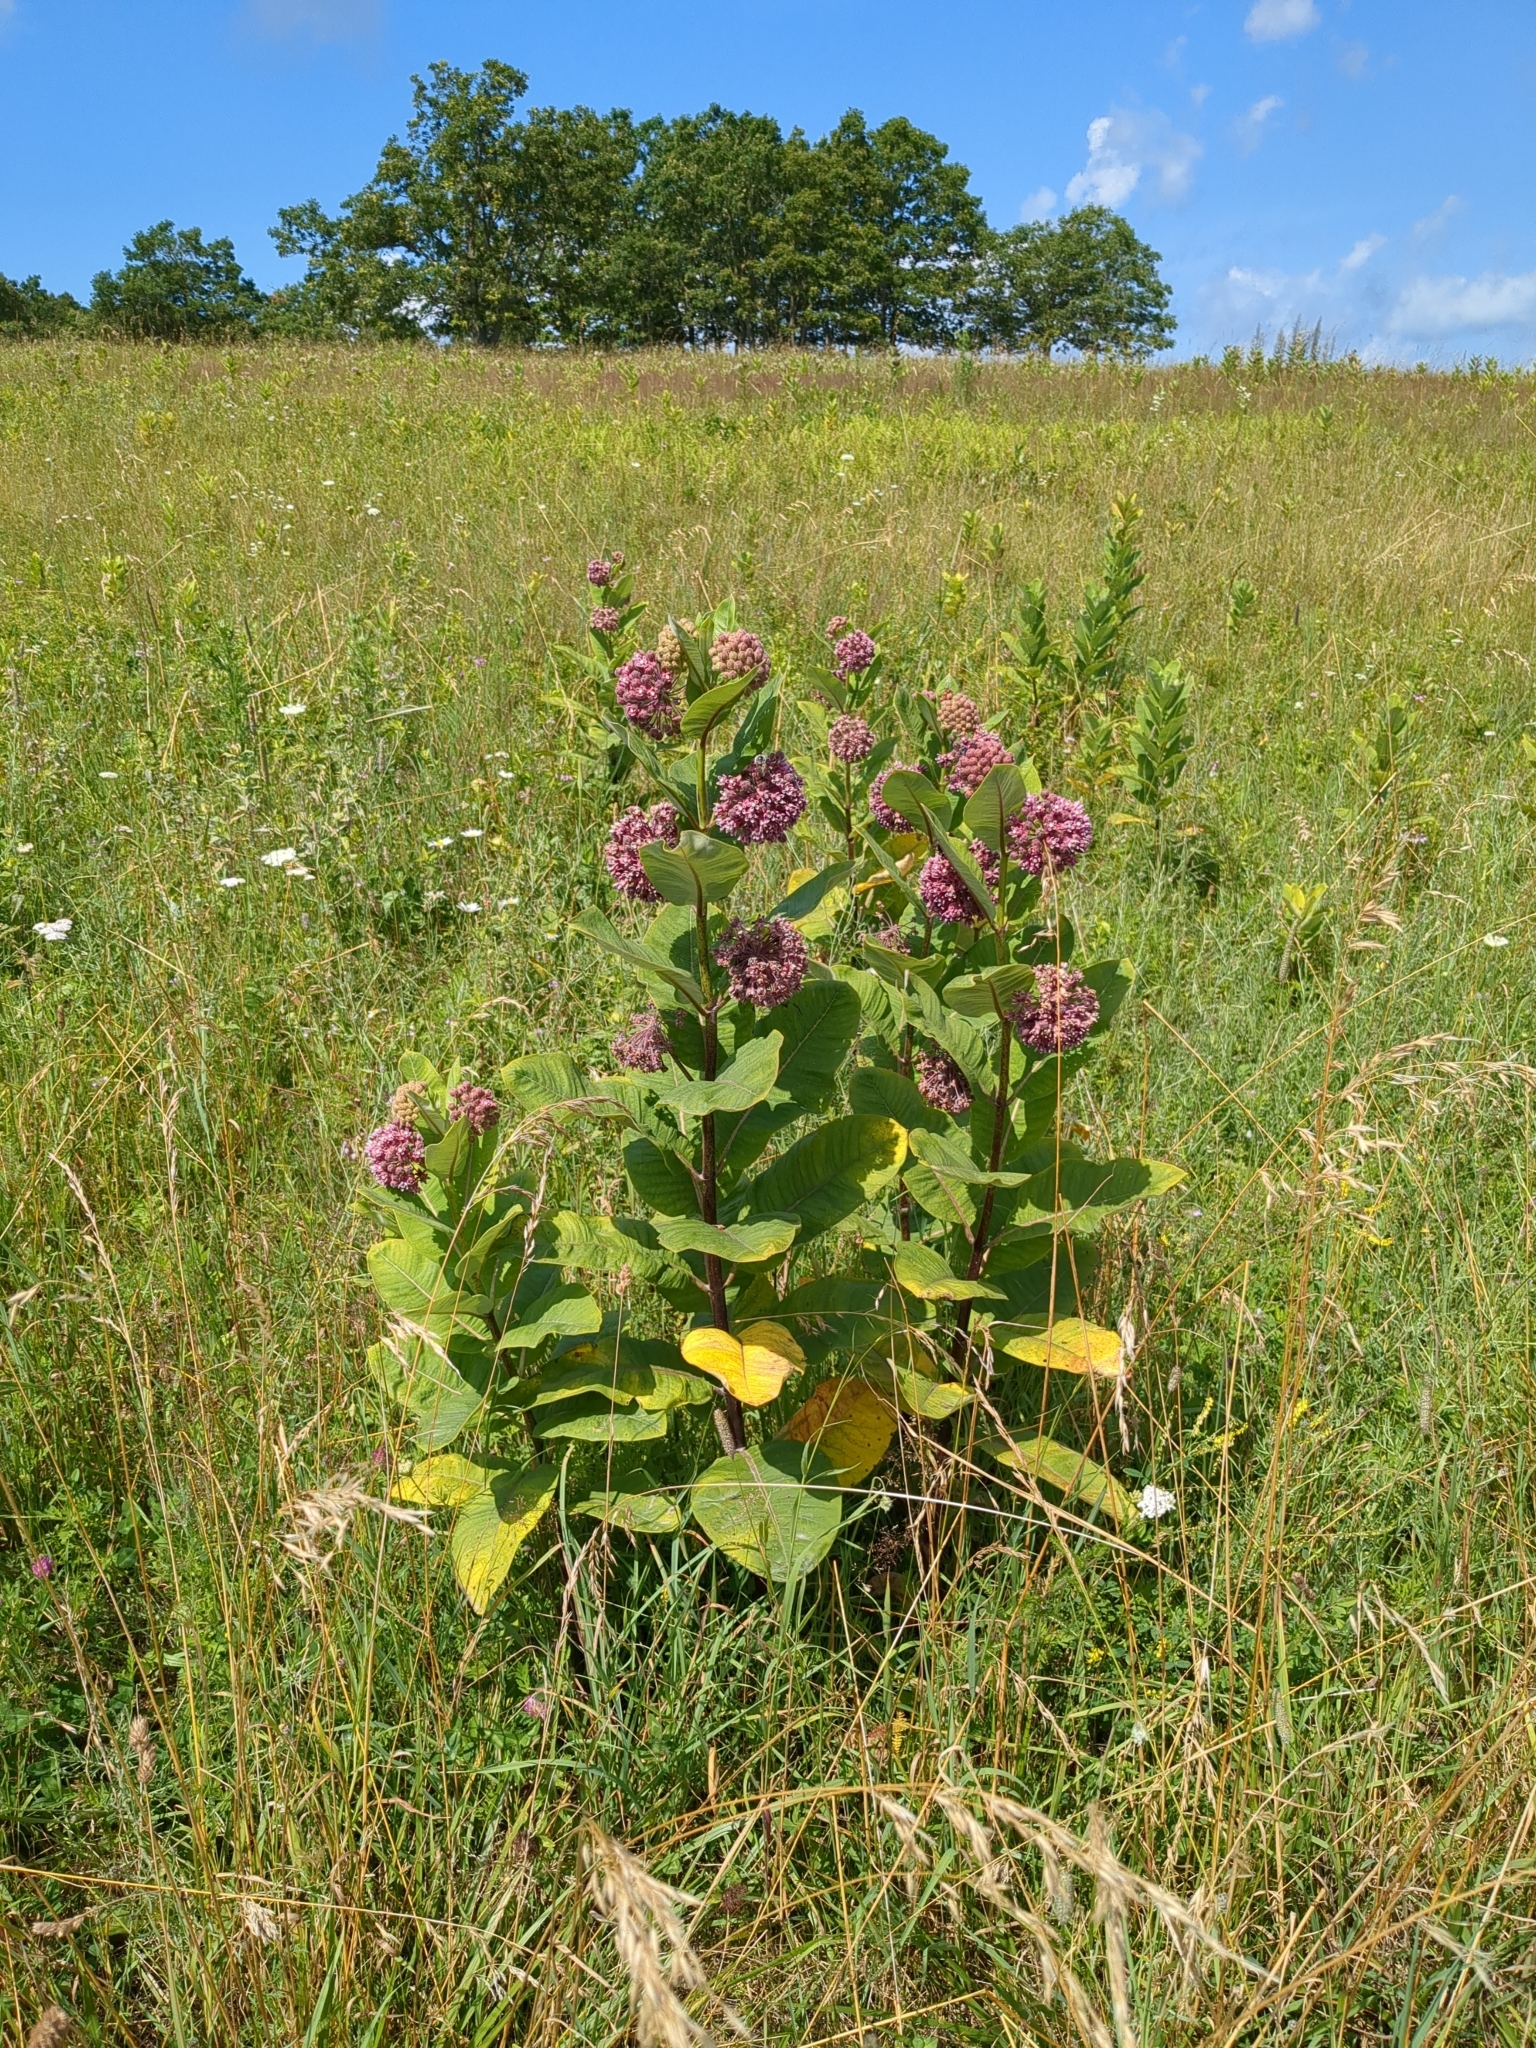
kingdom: Plantae
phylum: Tracheophyta
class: Magnoliopsida
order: Gentianales
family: Apocynaceae
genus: Asclepias
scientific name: Asclepias syriaca
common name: Common milkweed
